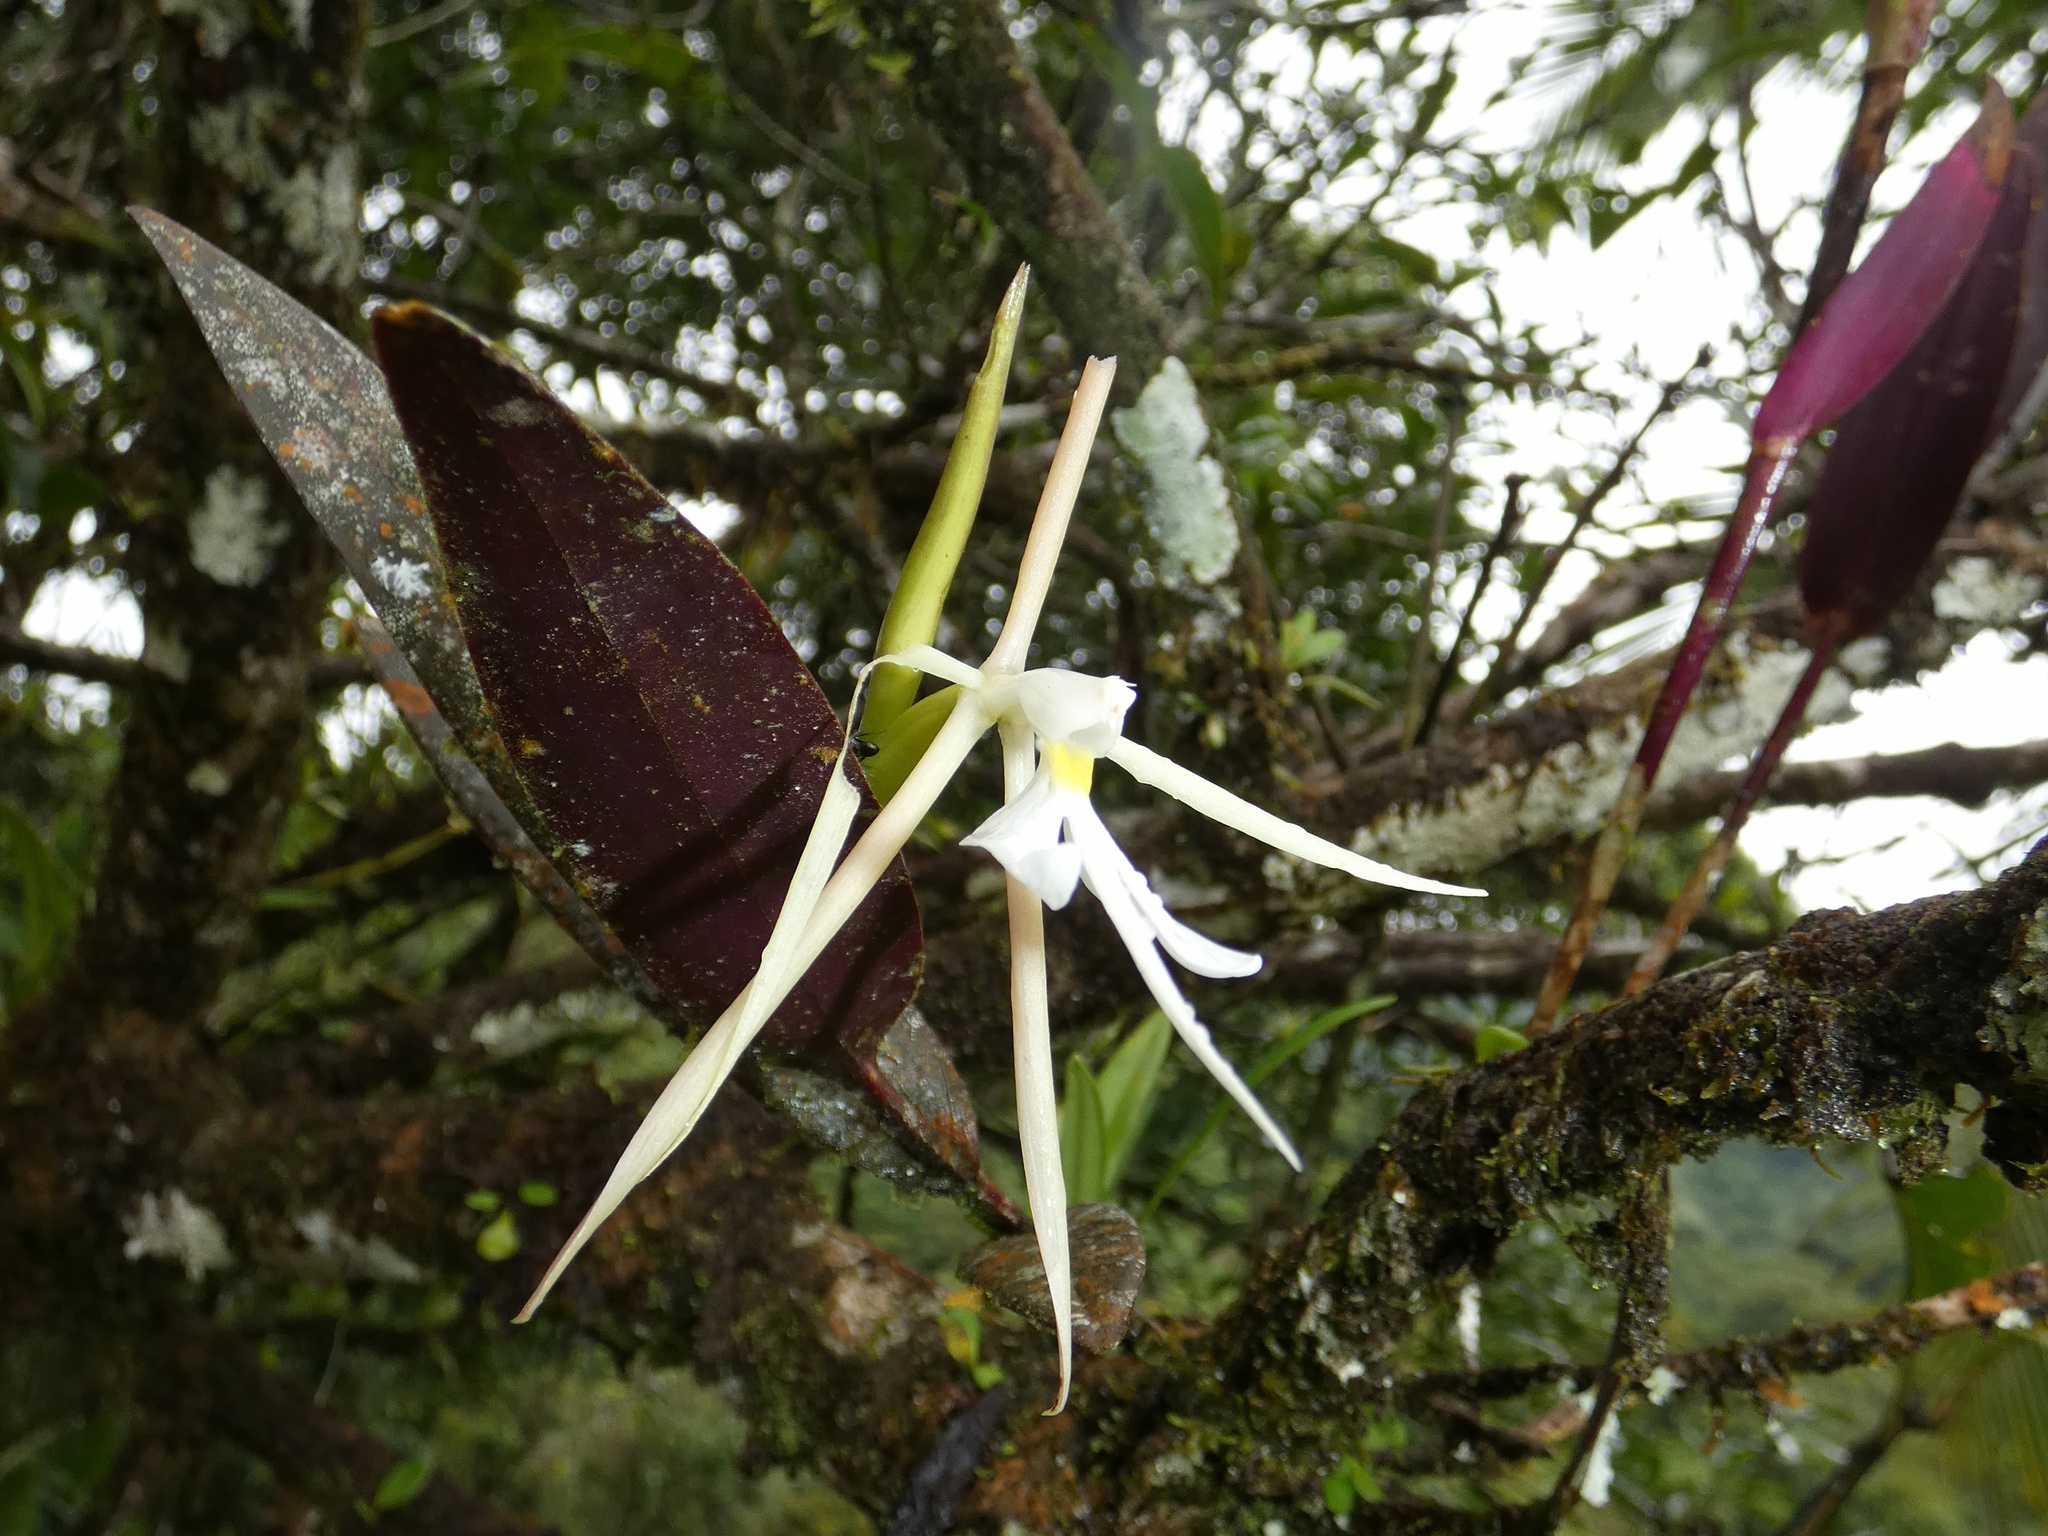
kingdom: Plantae
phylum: Tracheophyta
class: Liliopsida
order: Asparagales
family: Orchidaceae
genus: Epidendrum
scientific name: Epidendrum nocturnum
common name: Night scented orchid
